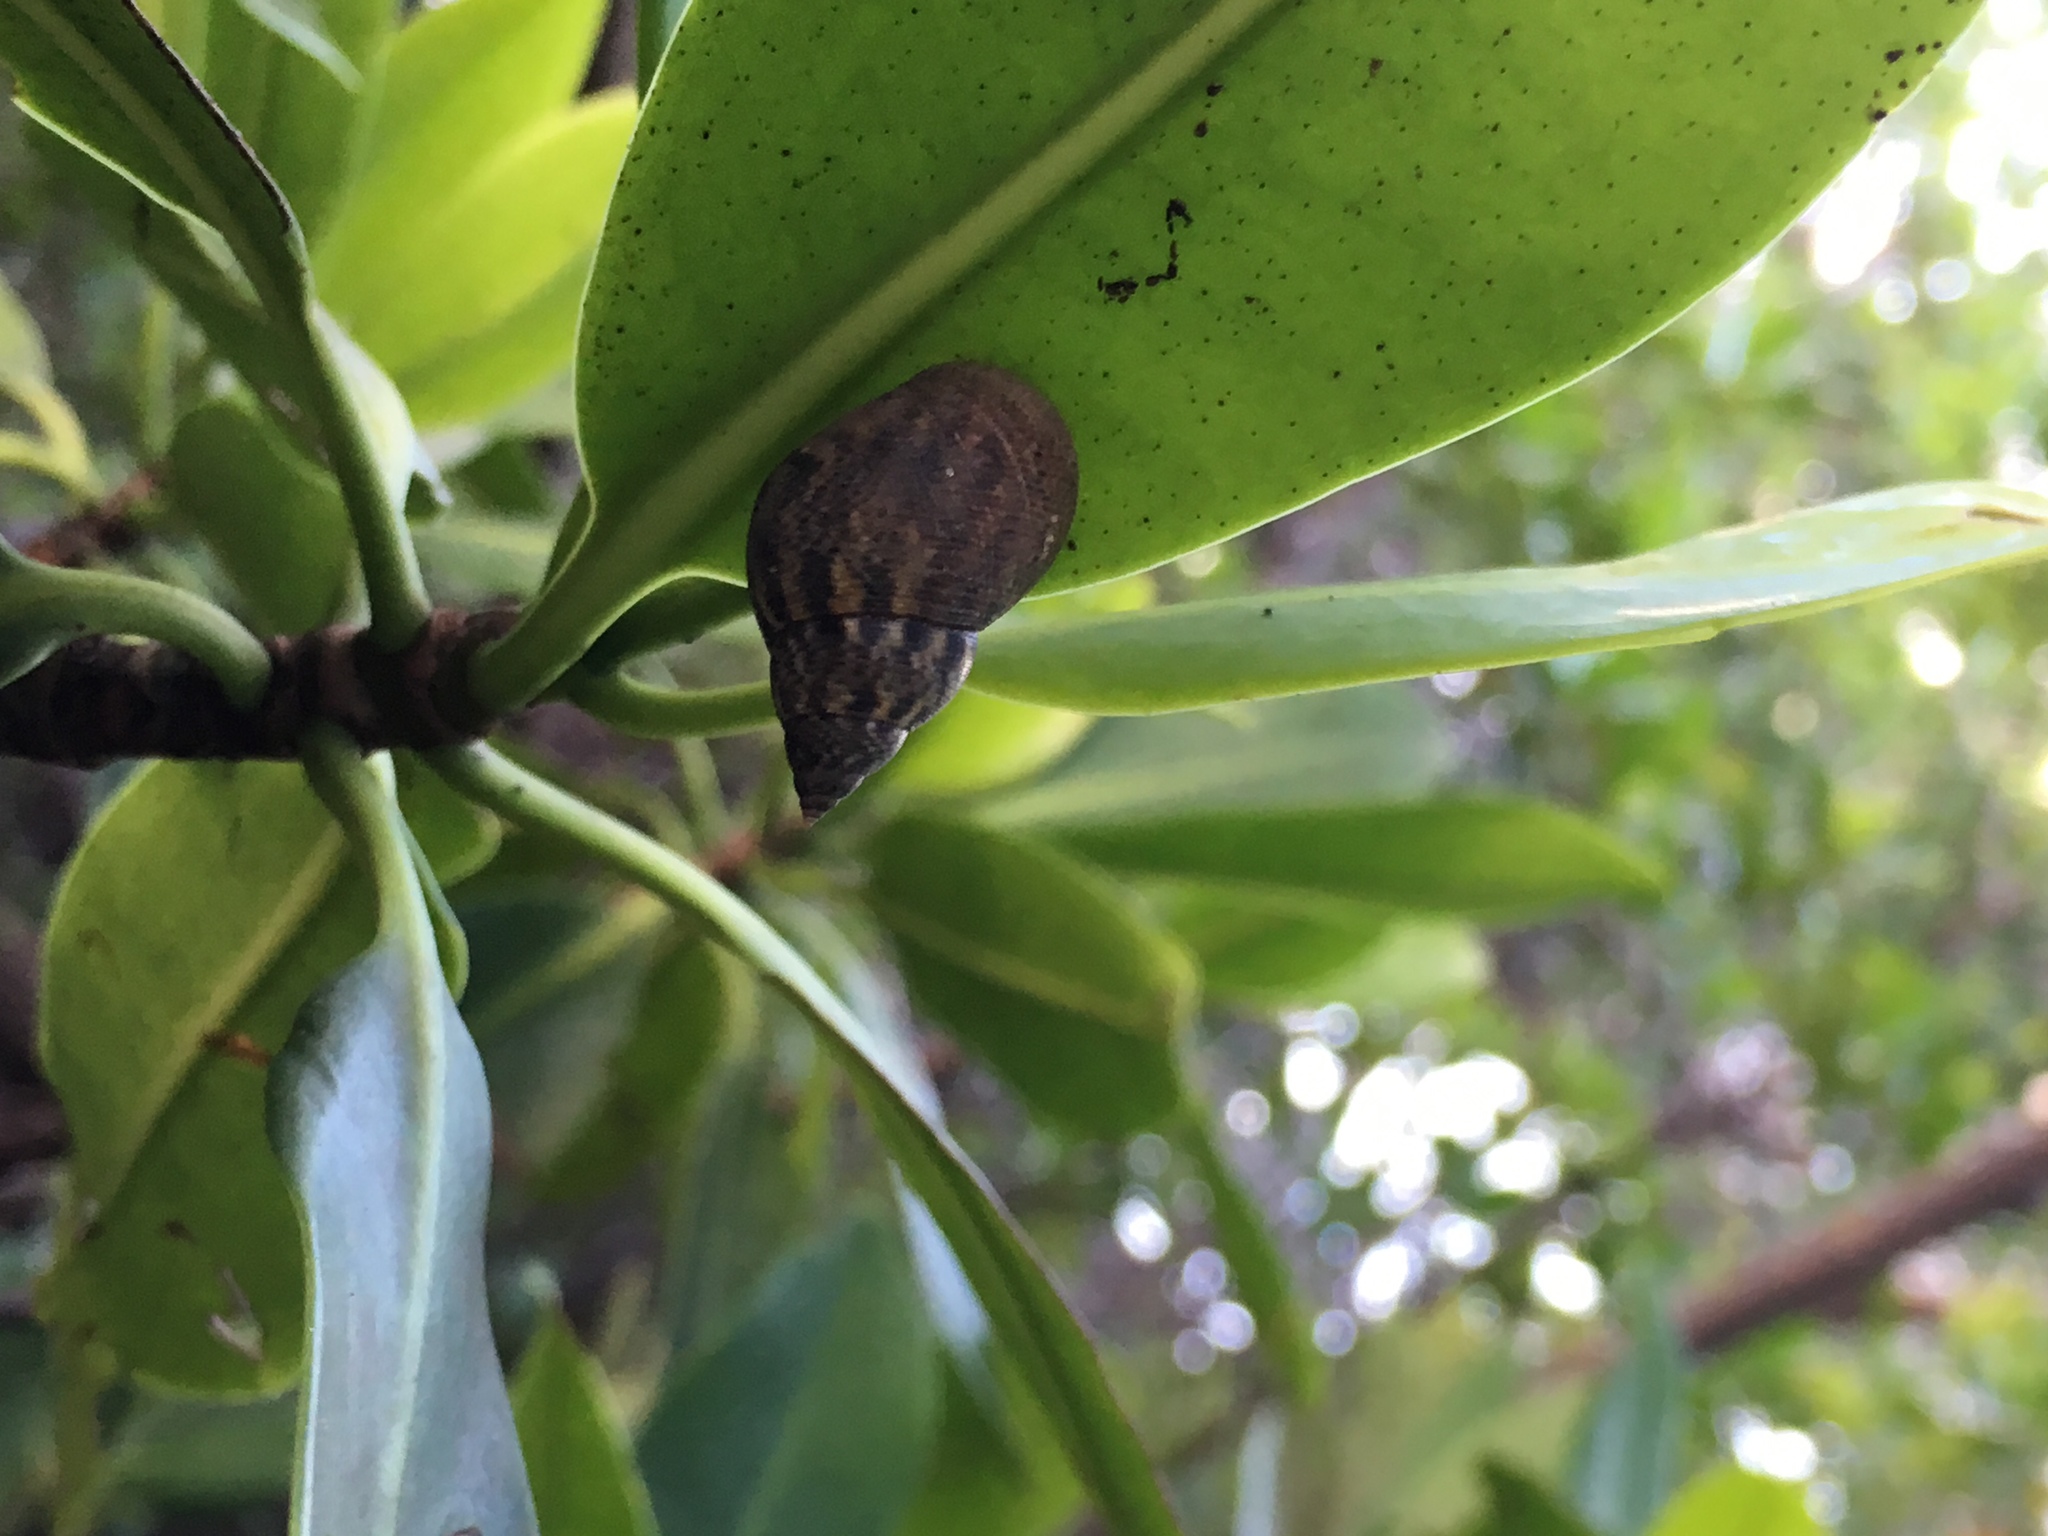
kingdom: Animalia
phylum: Mollusca
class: Gastropoda
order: Littorinimorpha
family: Littorinidae
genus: Littoraria
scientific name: Littoraria angulifera
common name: Mangrove periwinkle
